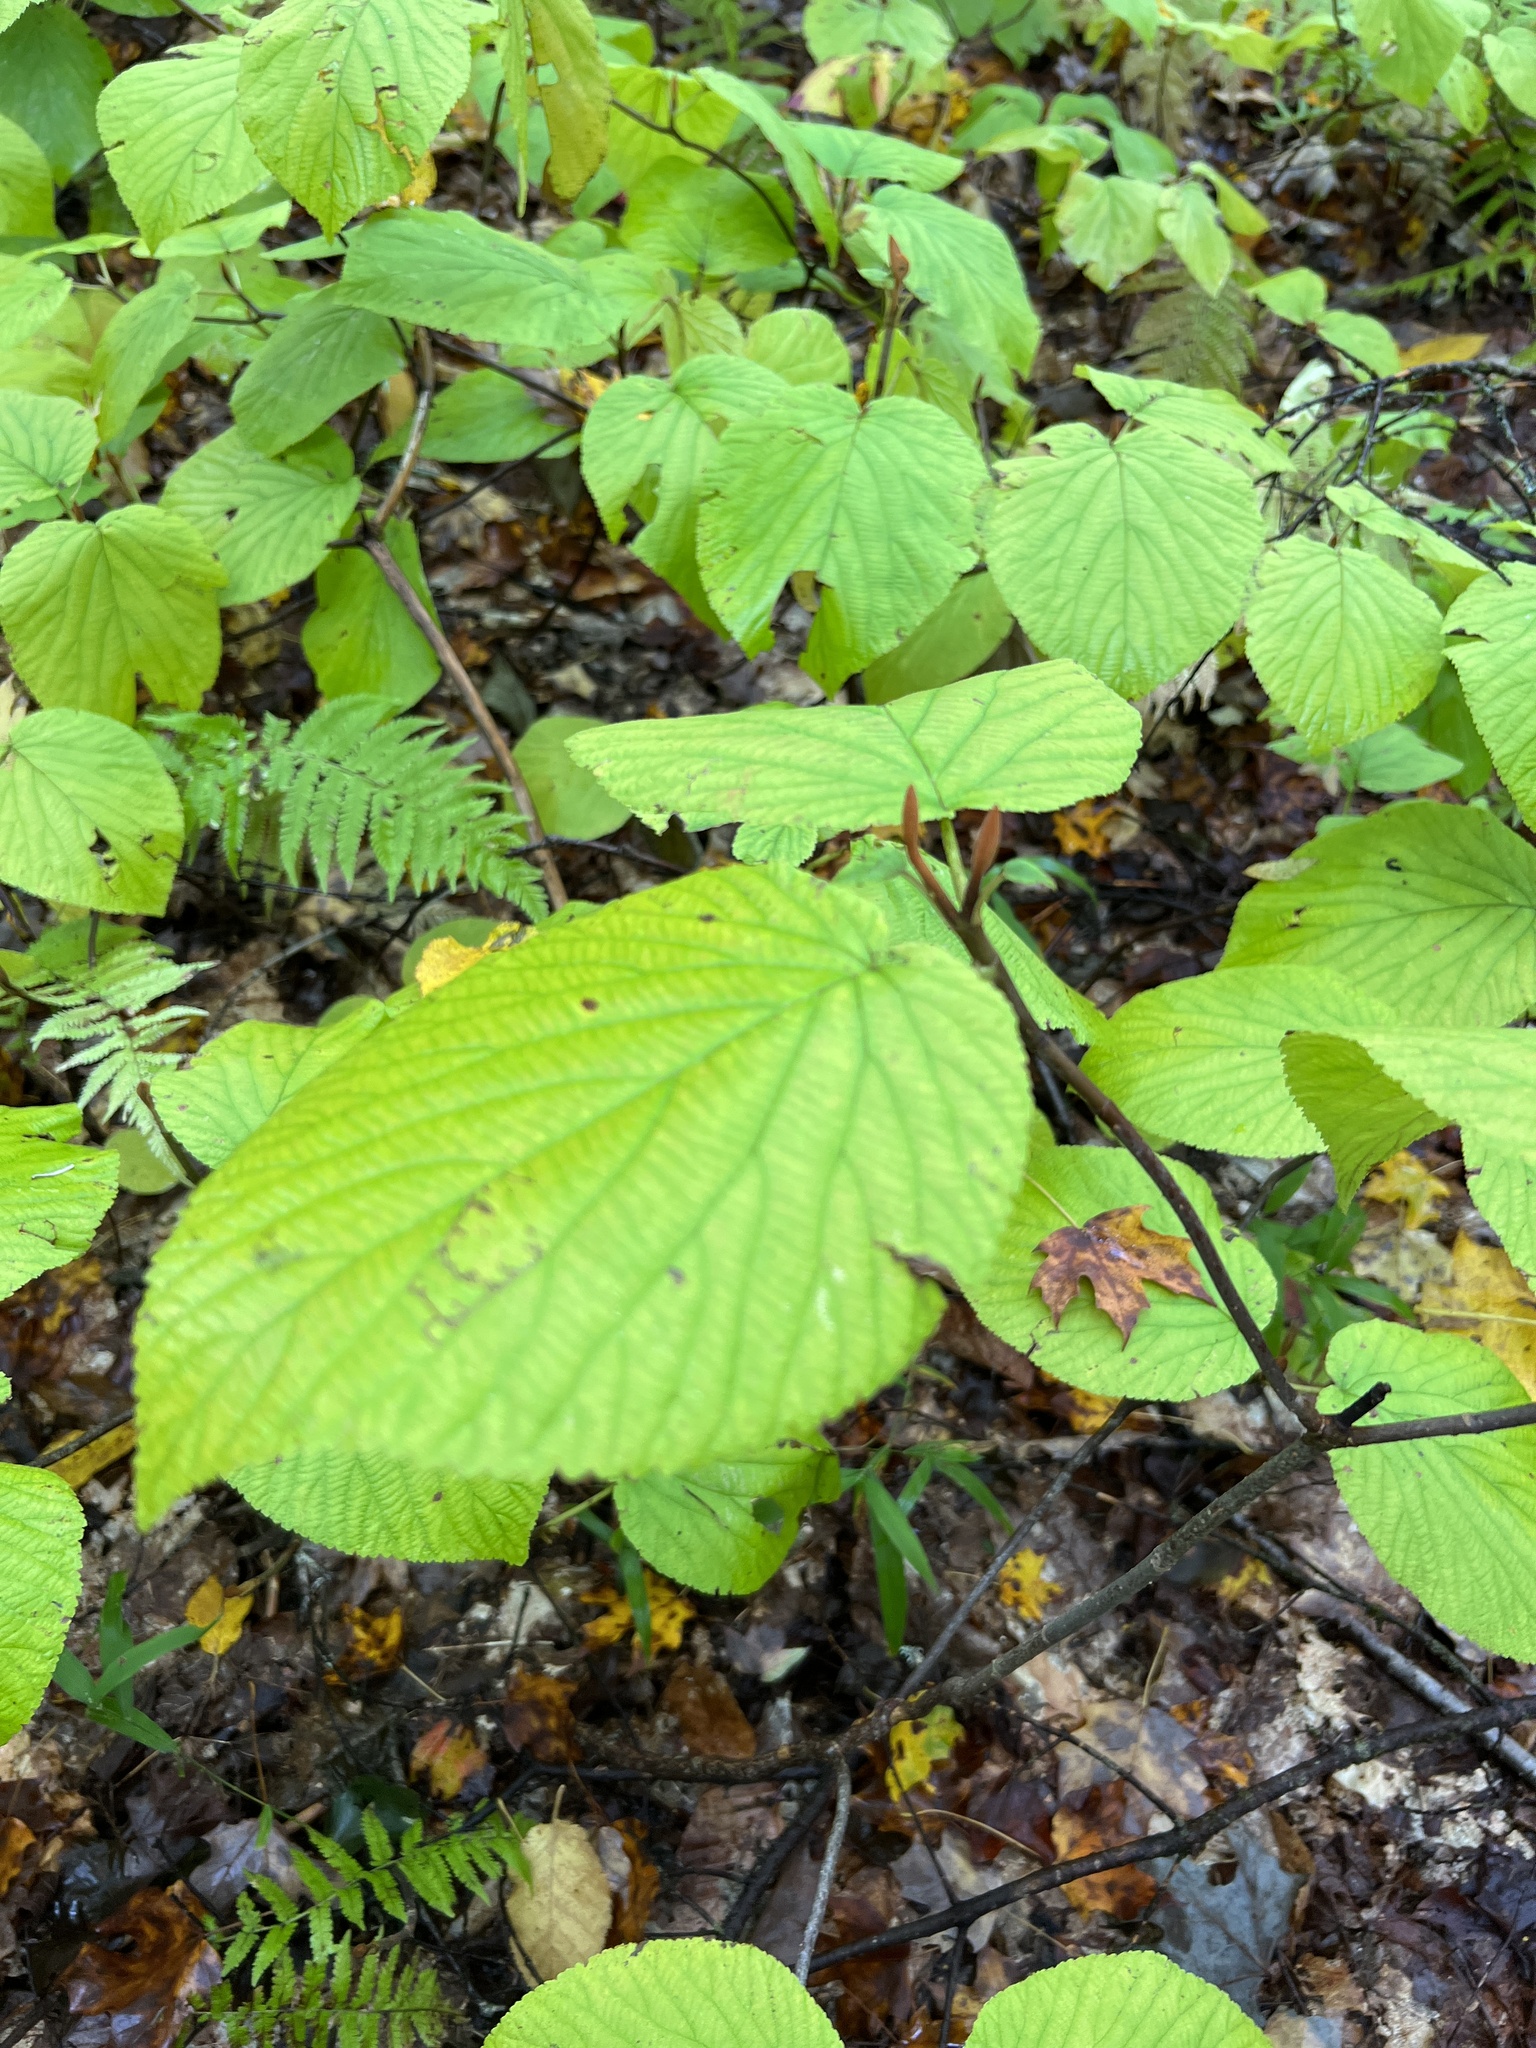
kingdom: Plantae
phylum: Tracheophyta
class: Magnoliopsida
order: Dipsacales
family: Viburnaceae
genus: Viburnum
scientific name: Viburnum lantanoides
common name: Hobblebush
